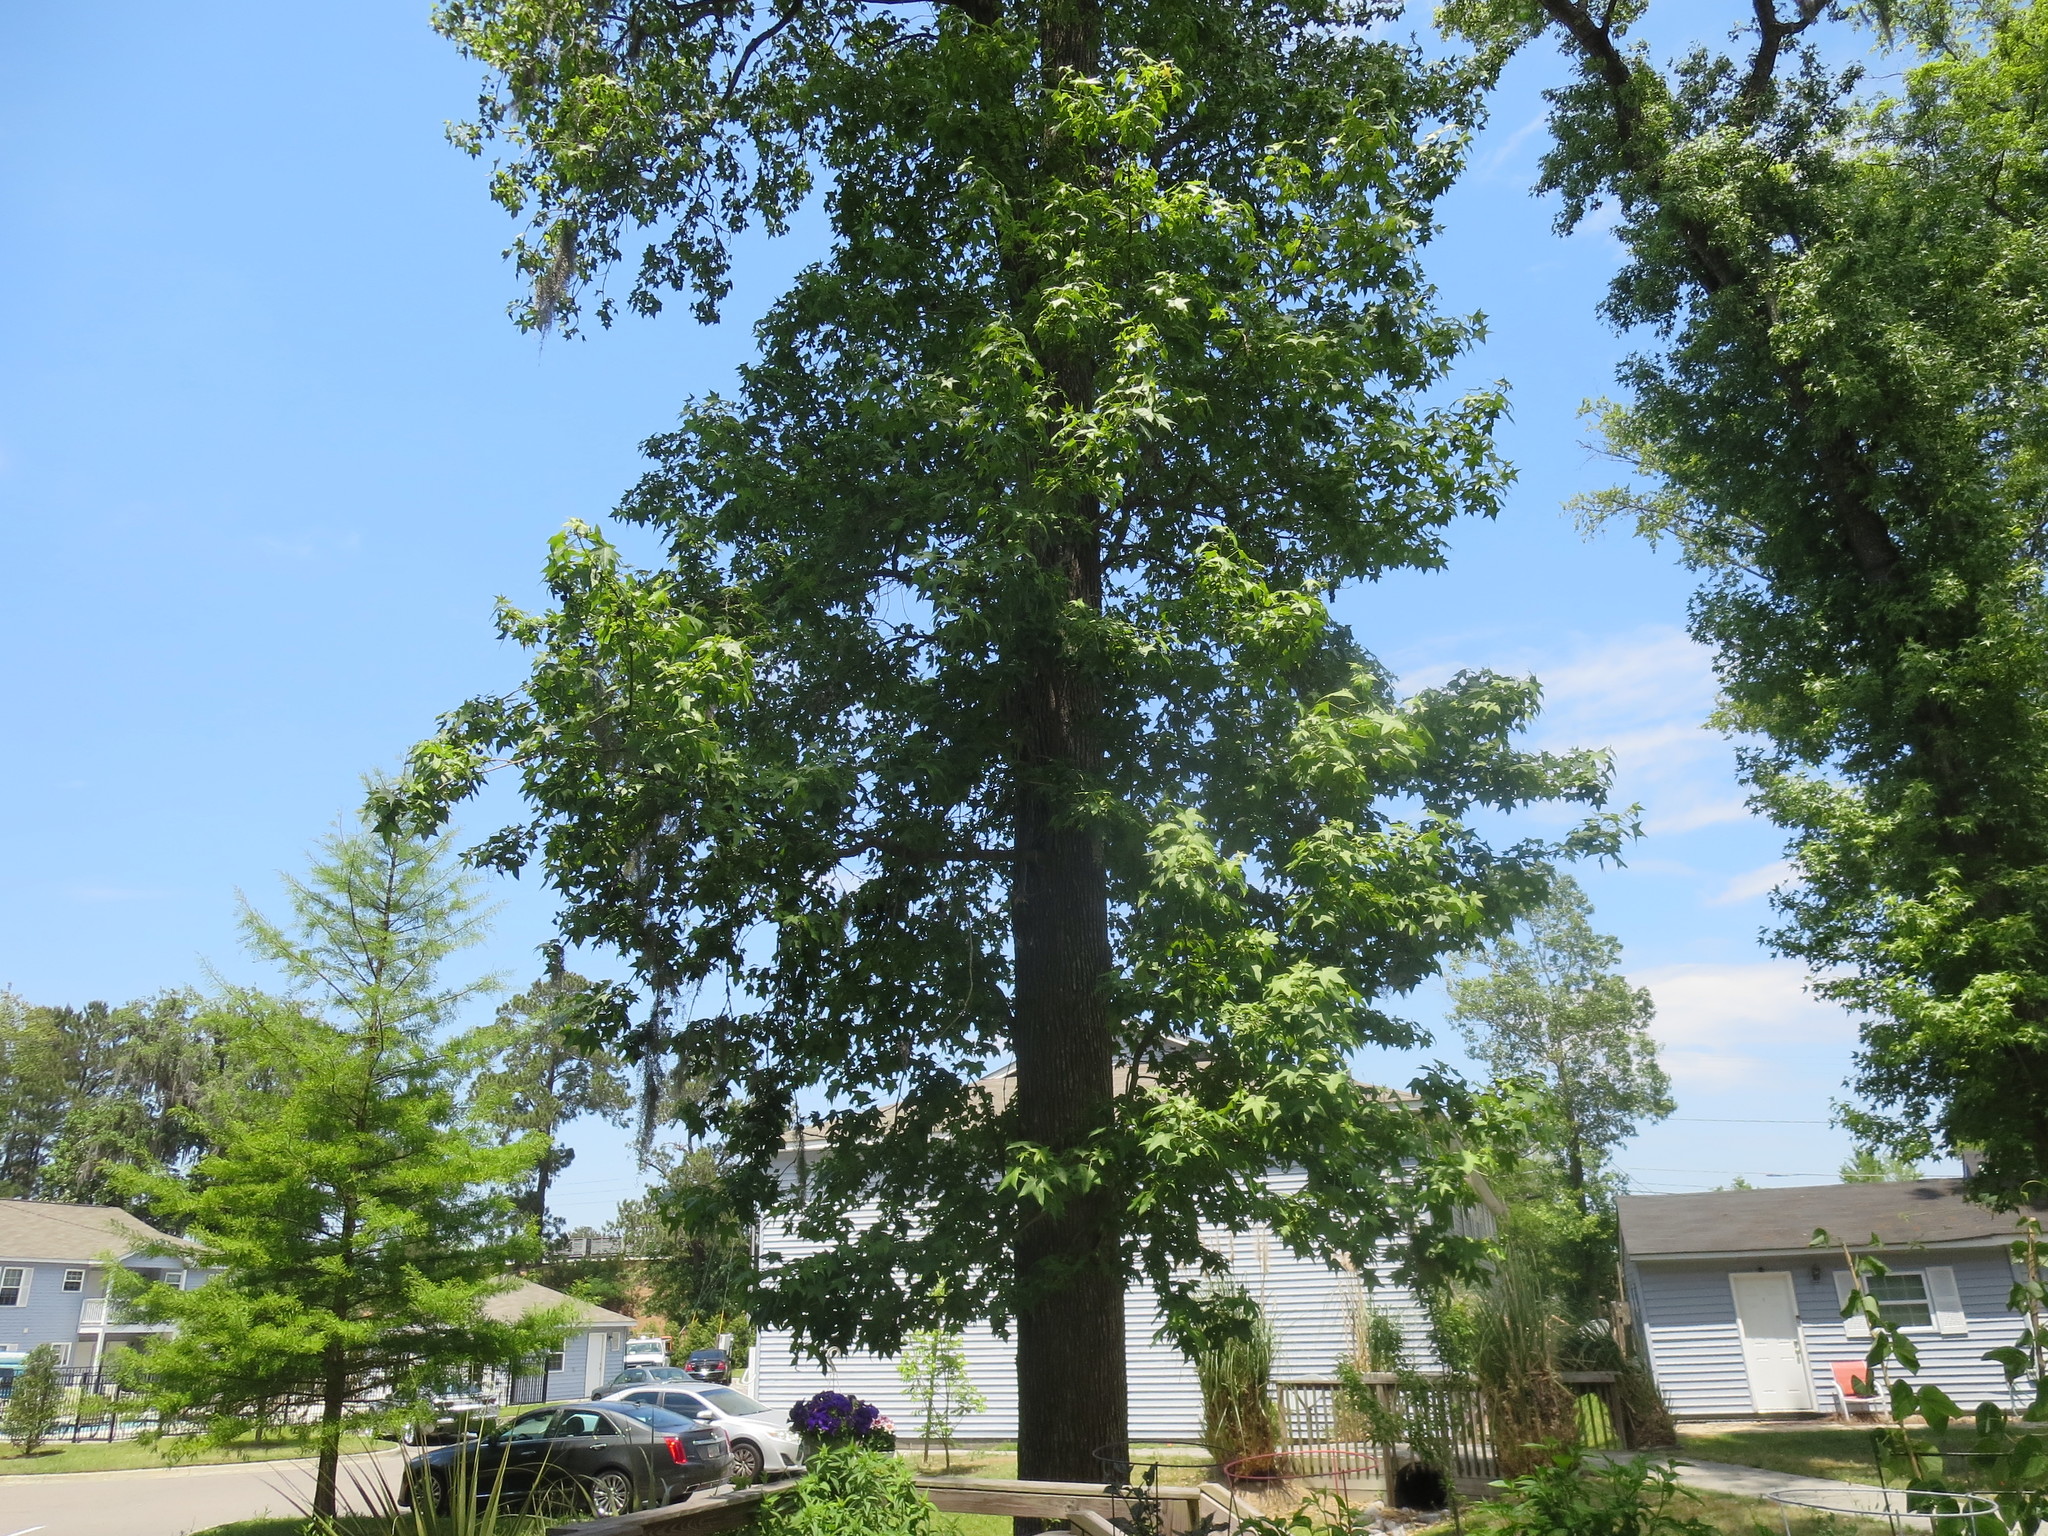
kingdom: Plantae
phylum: Tracheophyta
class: Magnoliopsida
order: Saxifragales
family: Altingiaceae
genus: Liquidambar
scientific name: Liquidambar styraciflua
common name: Sweet gum
